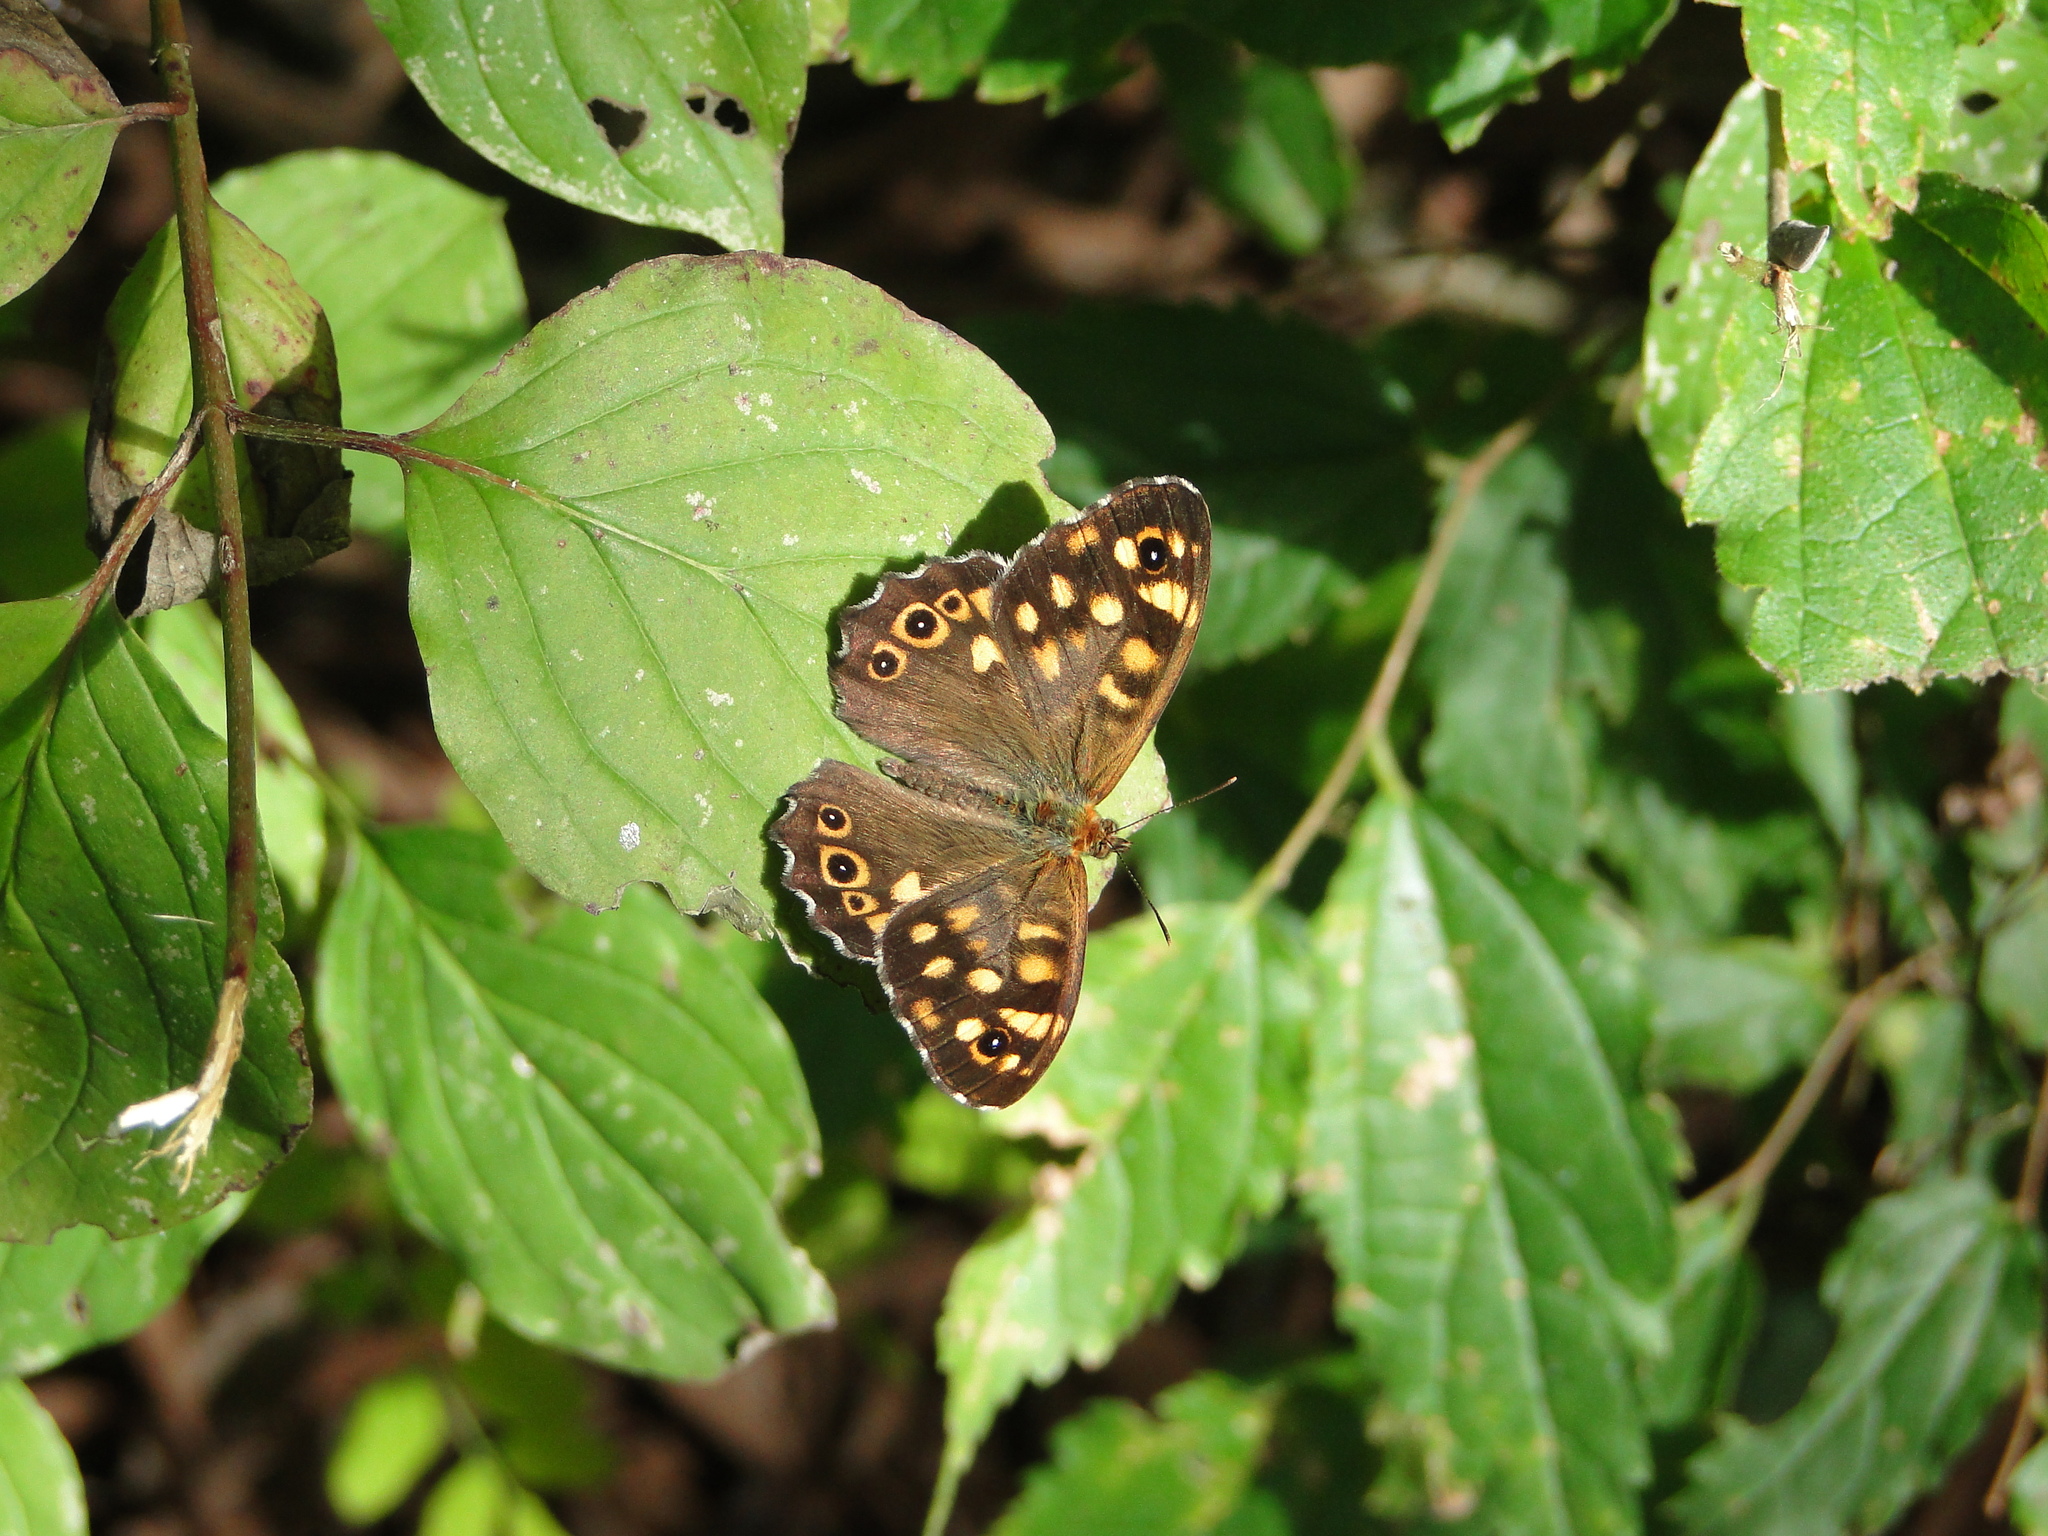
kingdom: Animalia
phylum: Arthropoda
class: Insecta
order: Lepidoptera
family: Nymphalidae
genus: Pararge
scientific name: Pararge aegeria
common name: Speckled wood
